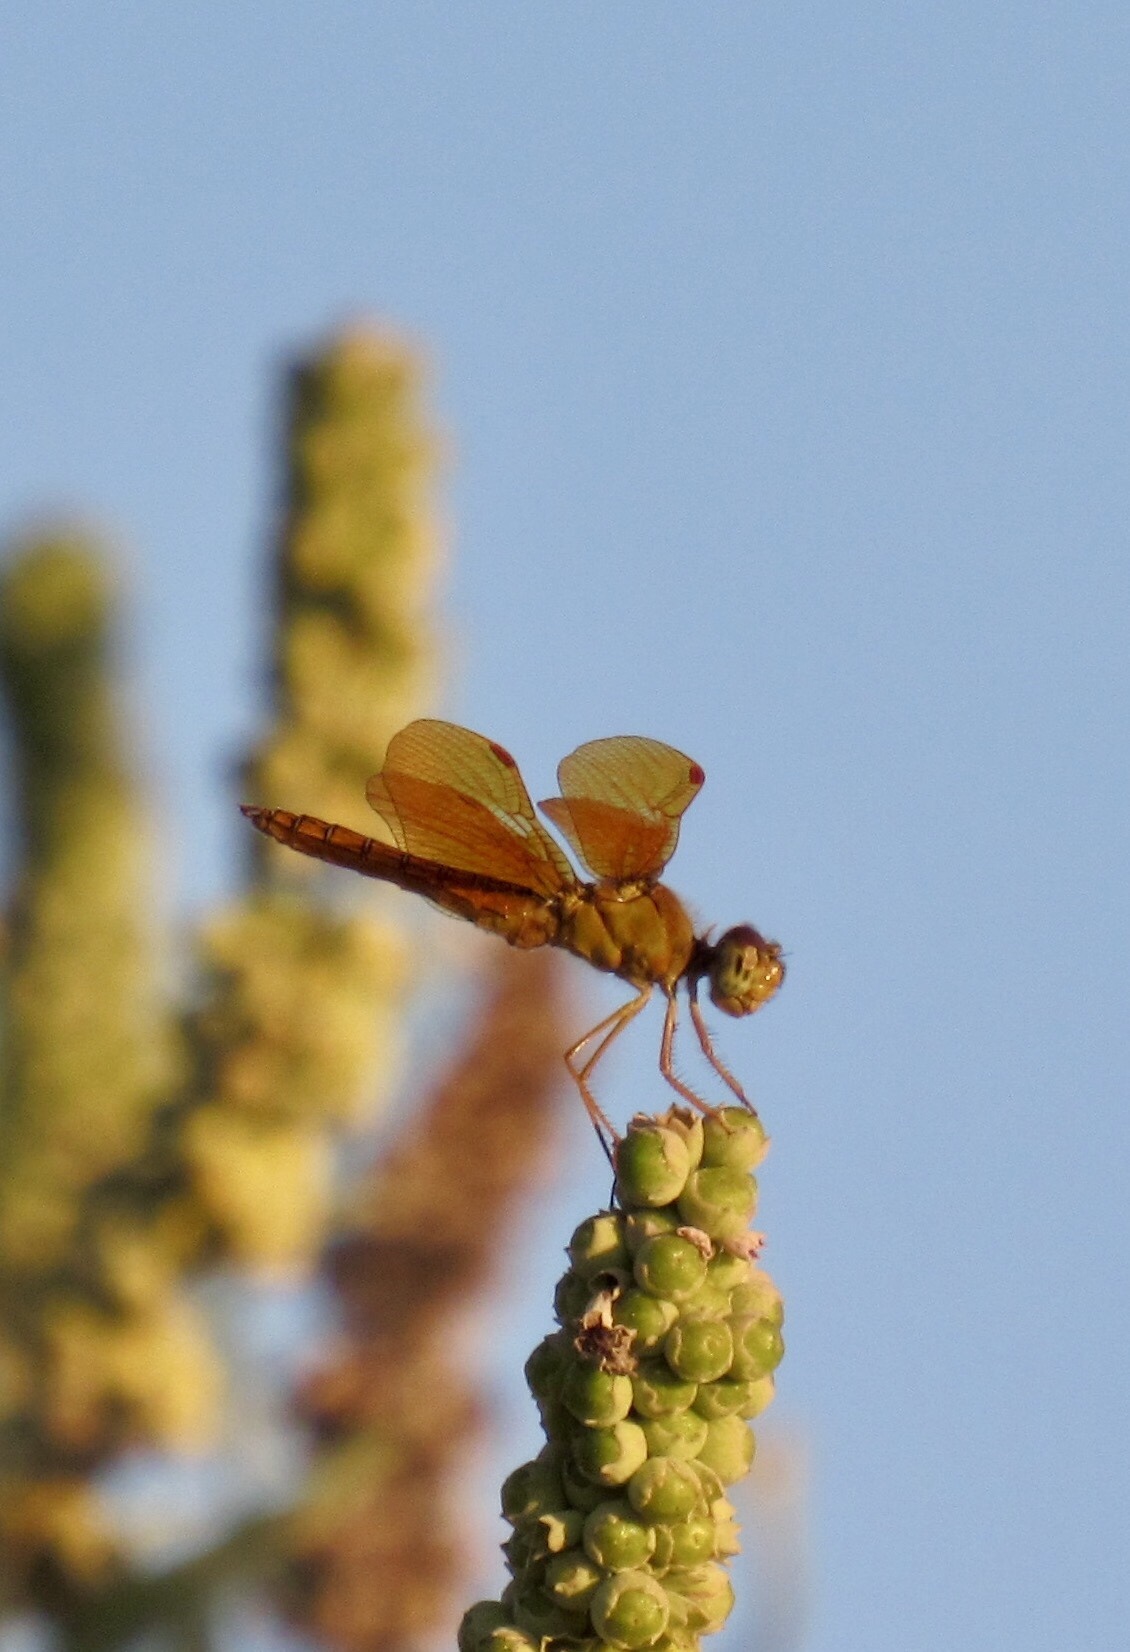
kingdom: Animalia
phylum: Arthropoda
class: Insecta
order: Odonata
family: Libellulidae
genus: Perithemis
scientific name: Perithemis intensa
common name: Mexican amberwing
